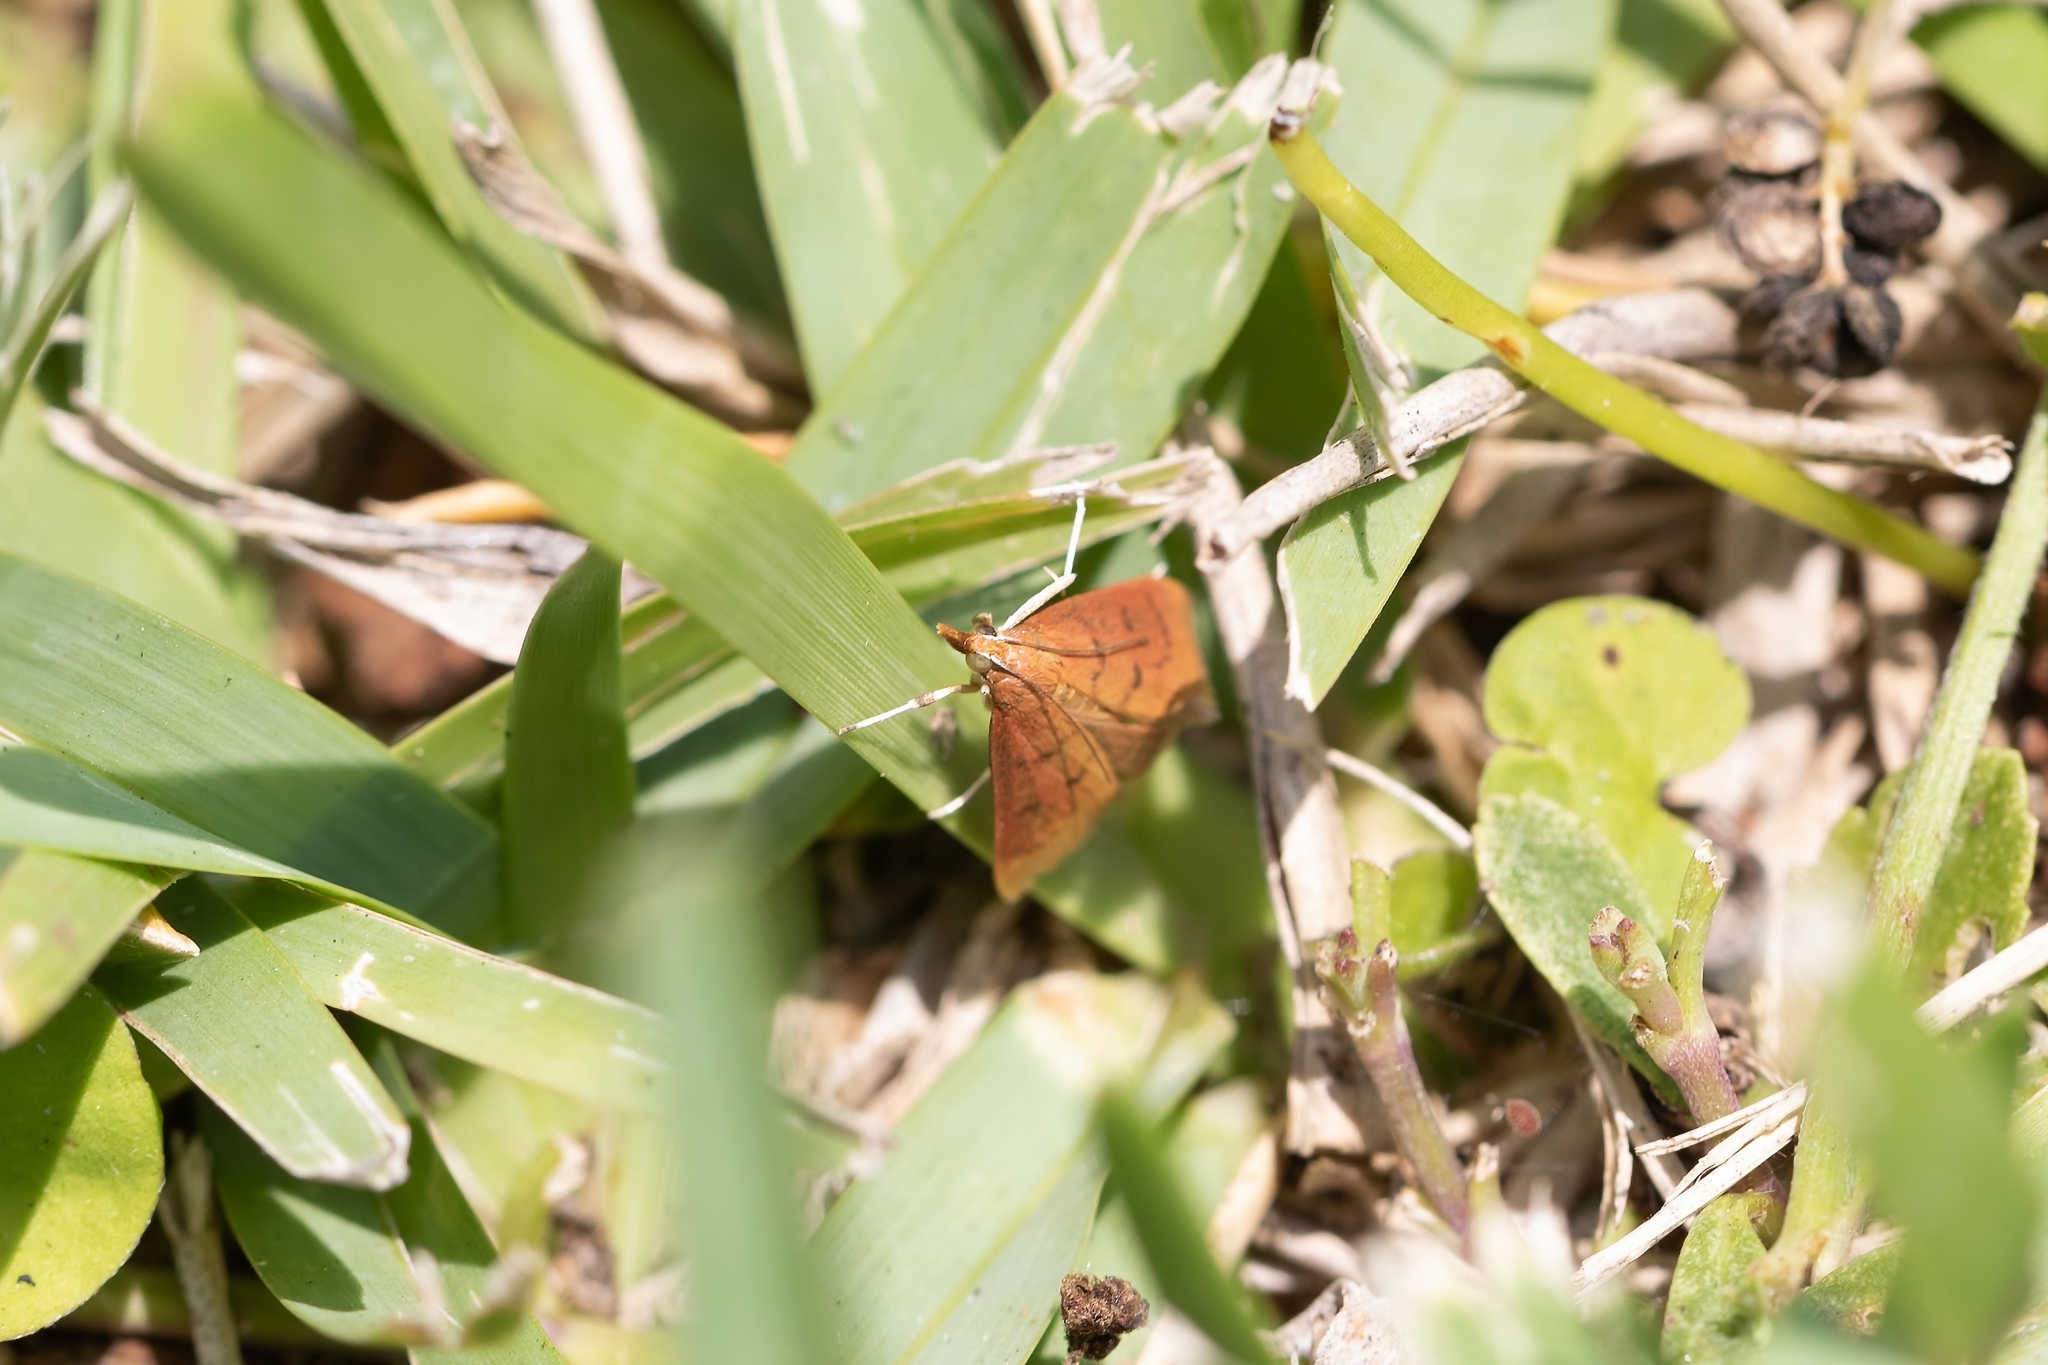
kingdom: Animalia
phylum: Arthropoda
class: Insecta
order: Lepidoptera
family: Crambidae
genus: Oenobotys
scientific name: Oenobotys vinotinctalis
